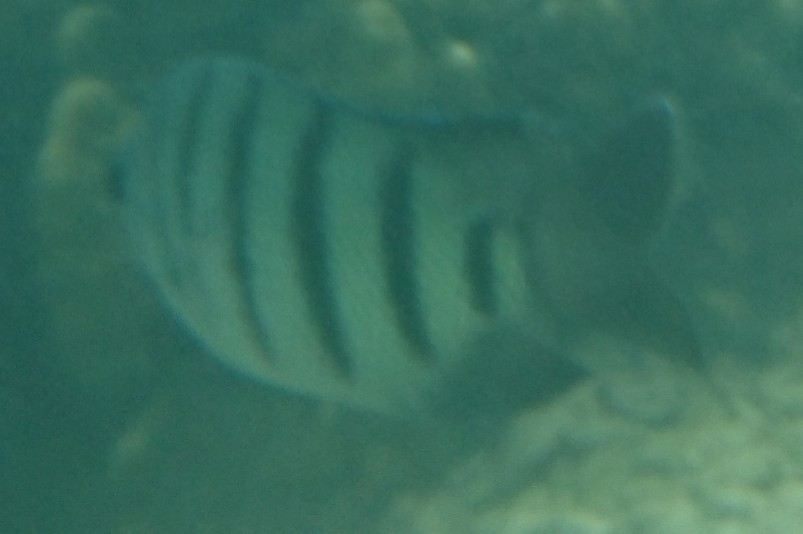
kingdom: Animalia
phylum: Chordata
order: Perciformes
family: Pomacentridae
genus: Abudefduf
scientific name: Abudefduf bengalensis
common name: Bengal sergeant
